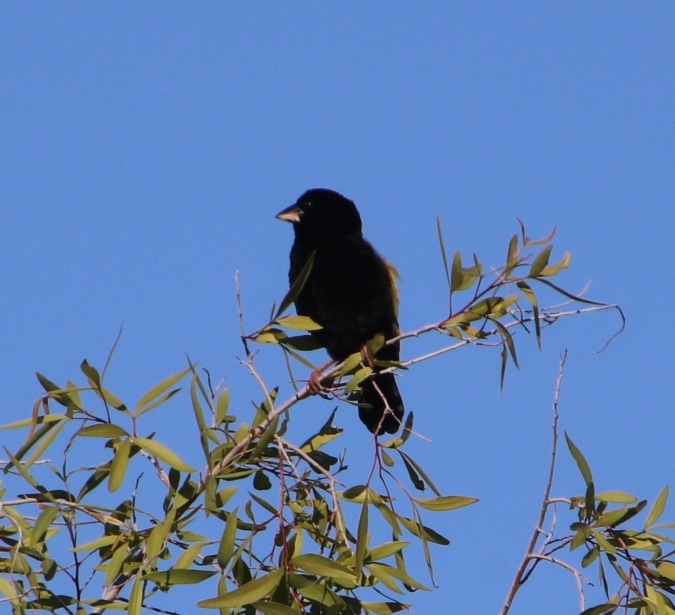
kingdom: Animalia
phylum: Chordata
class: Aves
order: Passeriformes
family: Ploceidae
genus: Euplectes
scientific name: Euplectes capensis
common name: Yellow bishop
